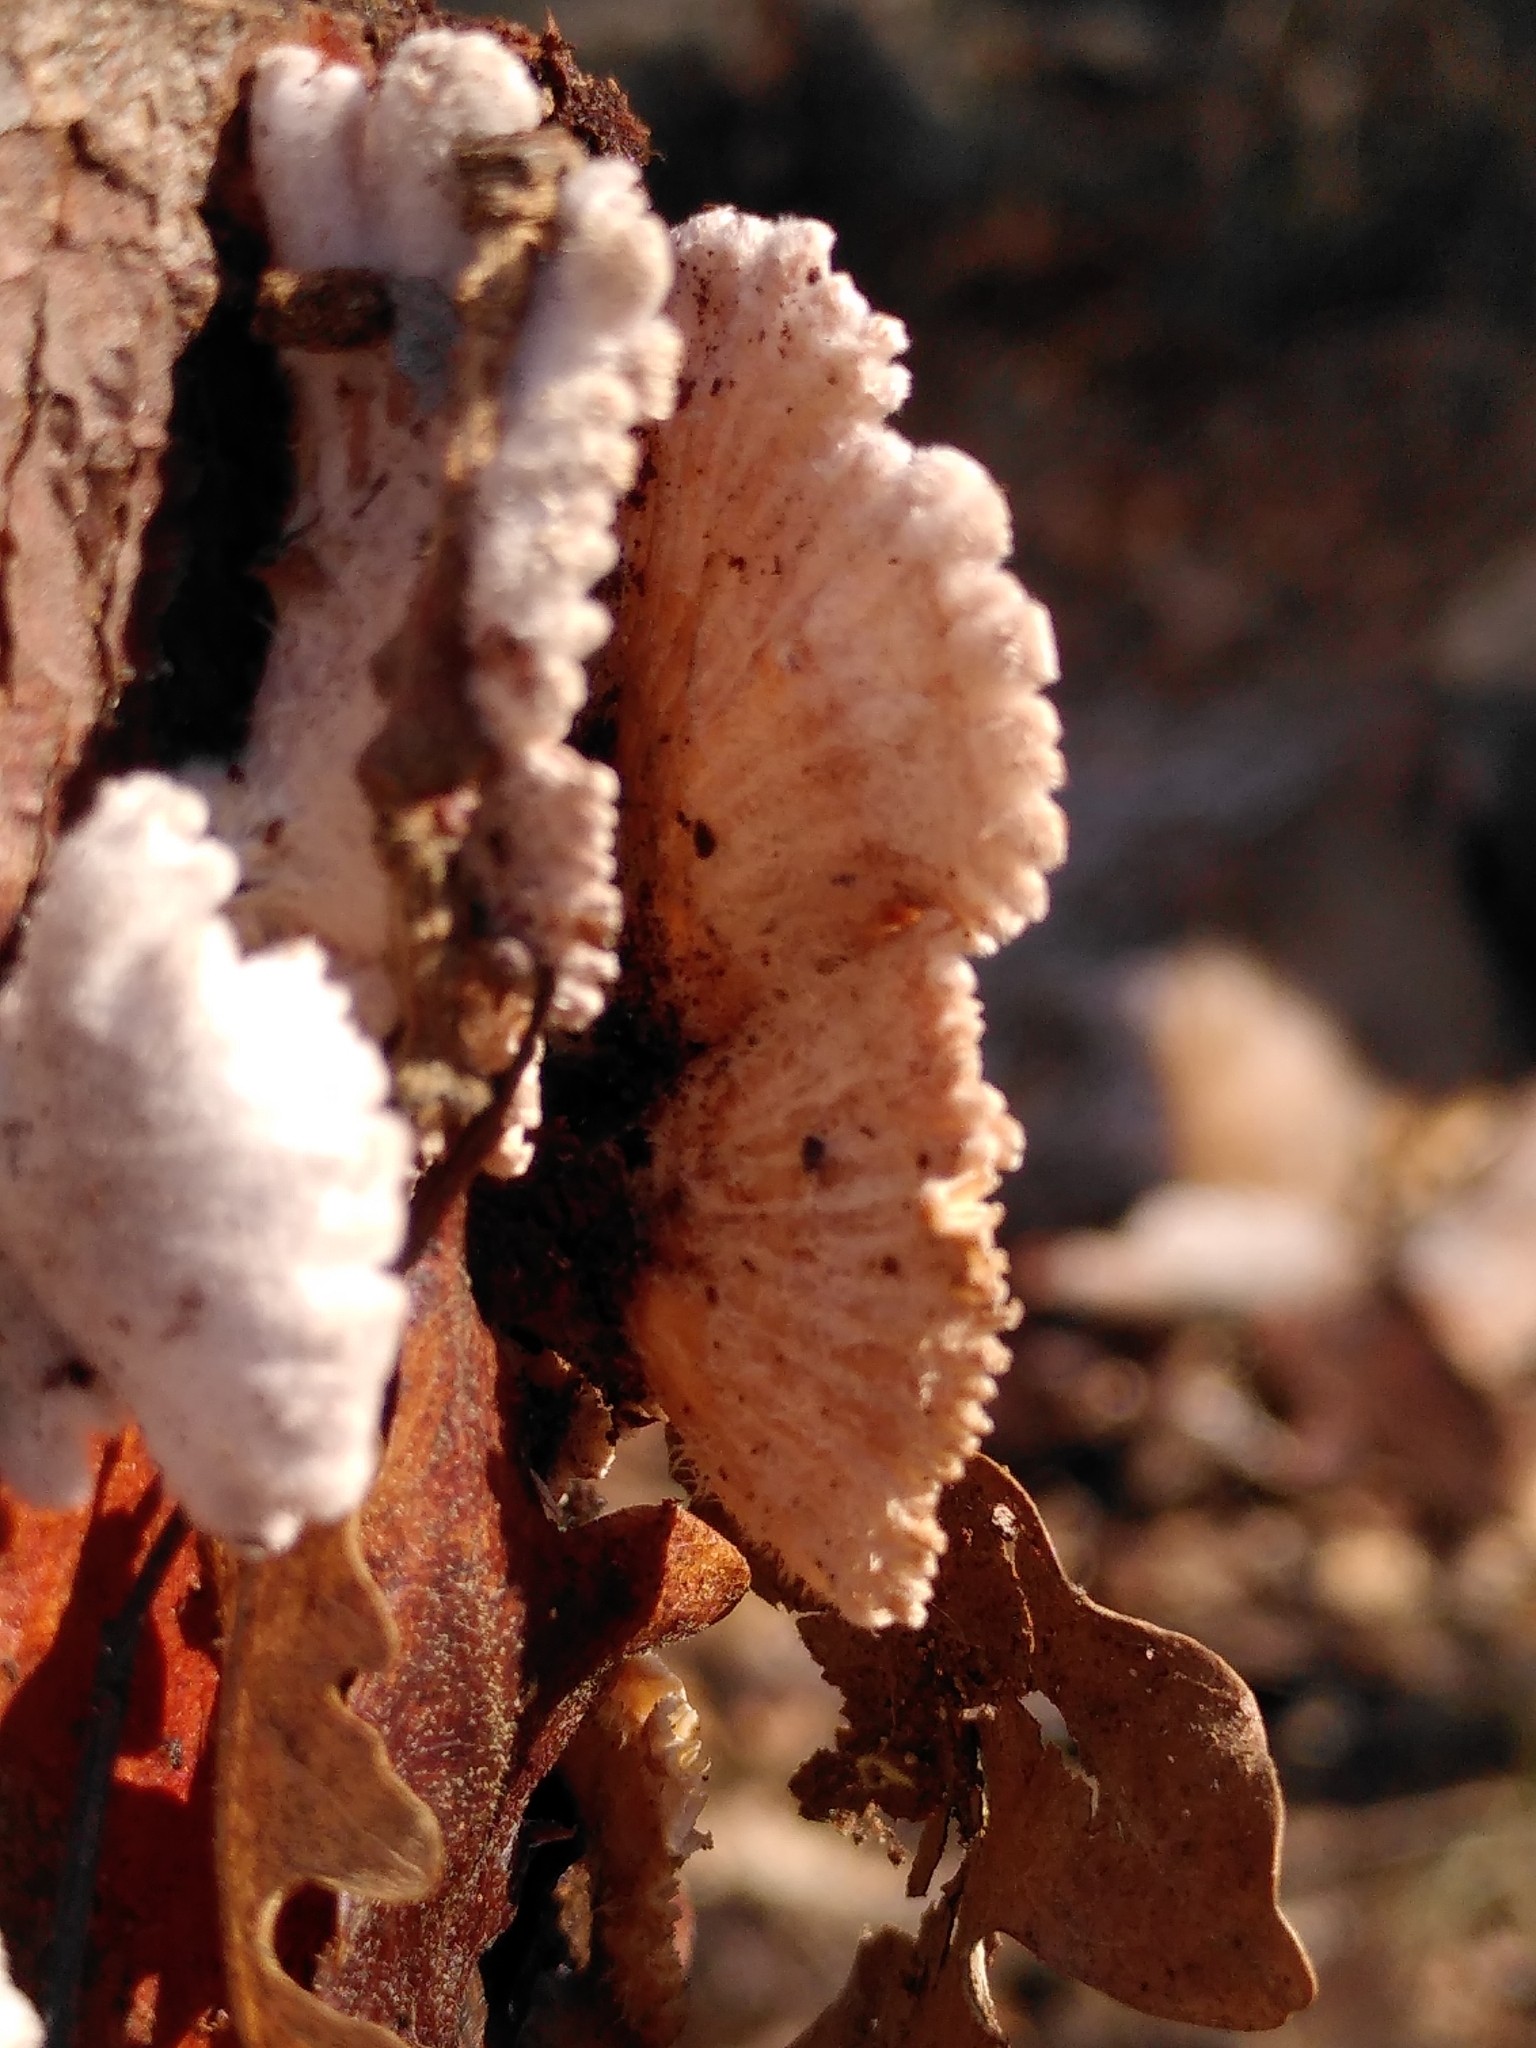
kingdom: Fungi
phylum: Basidiomycota
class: Agaricomycetes
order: Agaricales
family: Schizophyllaceae
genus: Schizophyllum
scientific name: Schizophyllum commune
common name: Common porecrust
